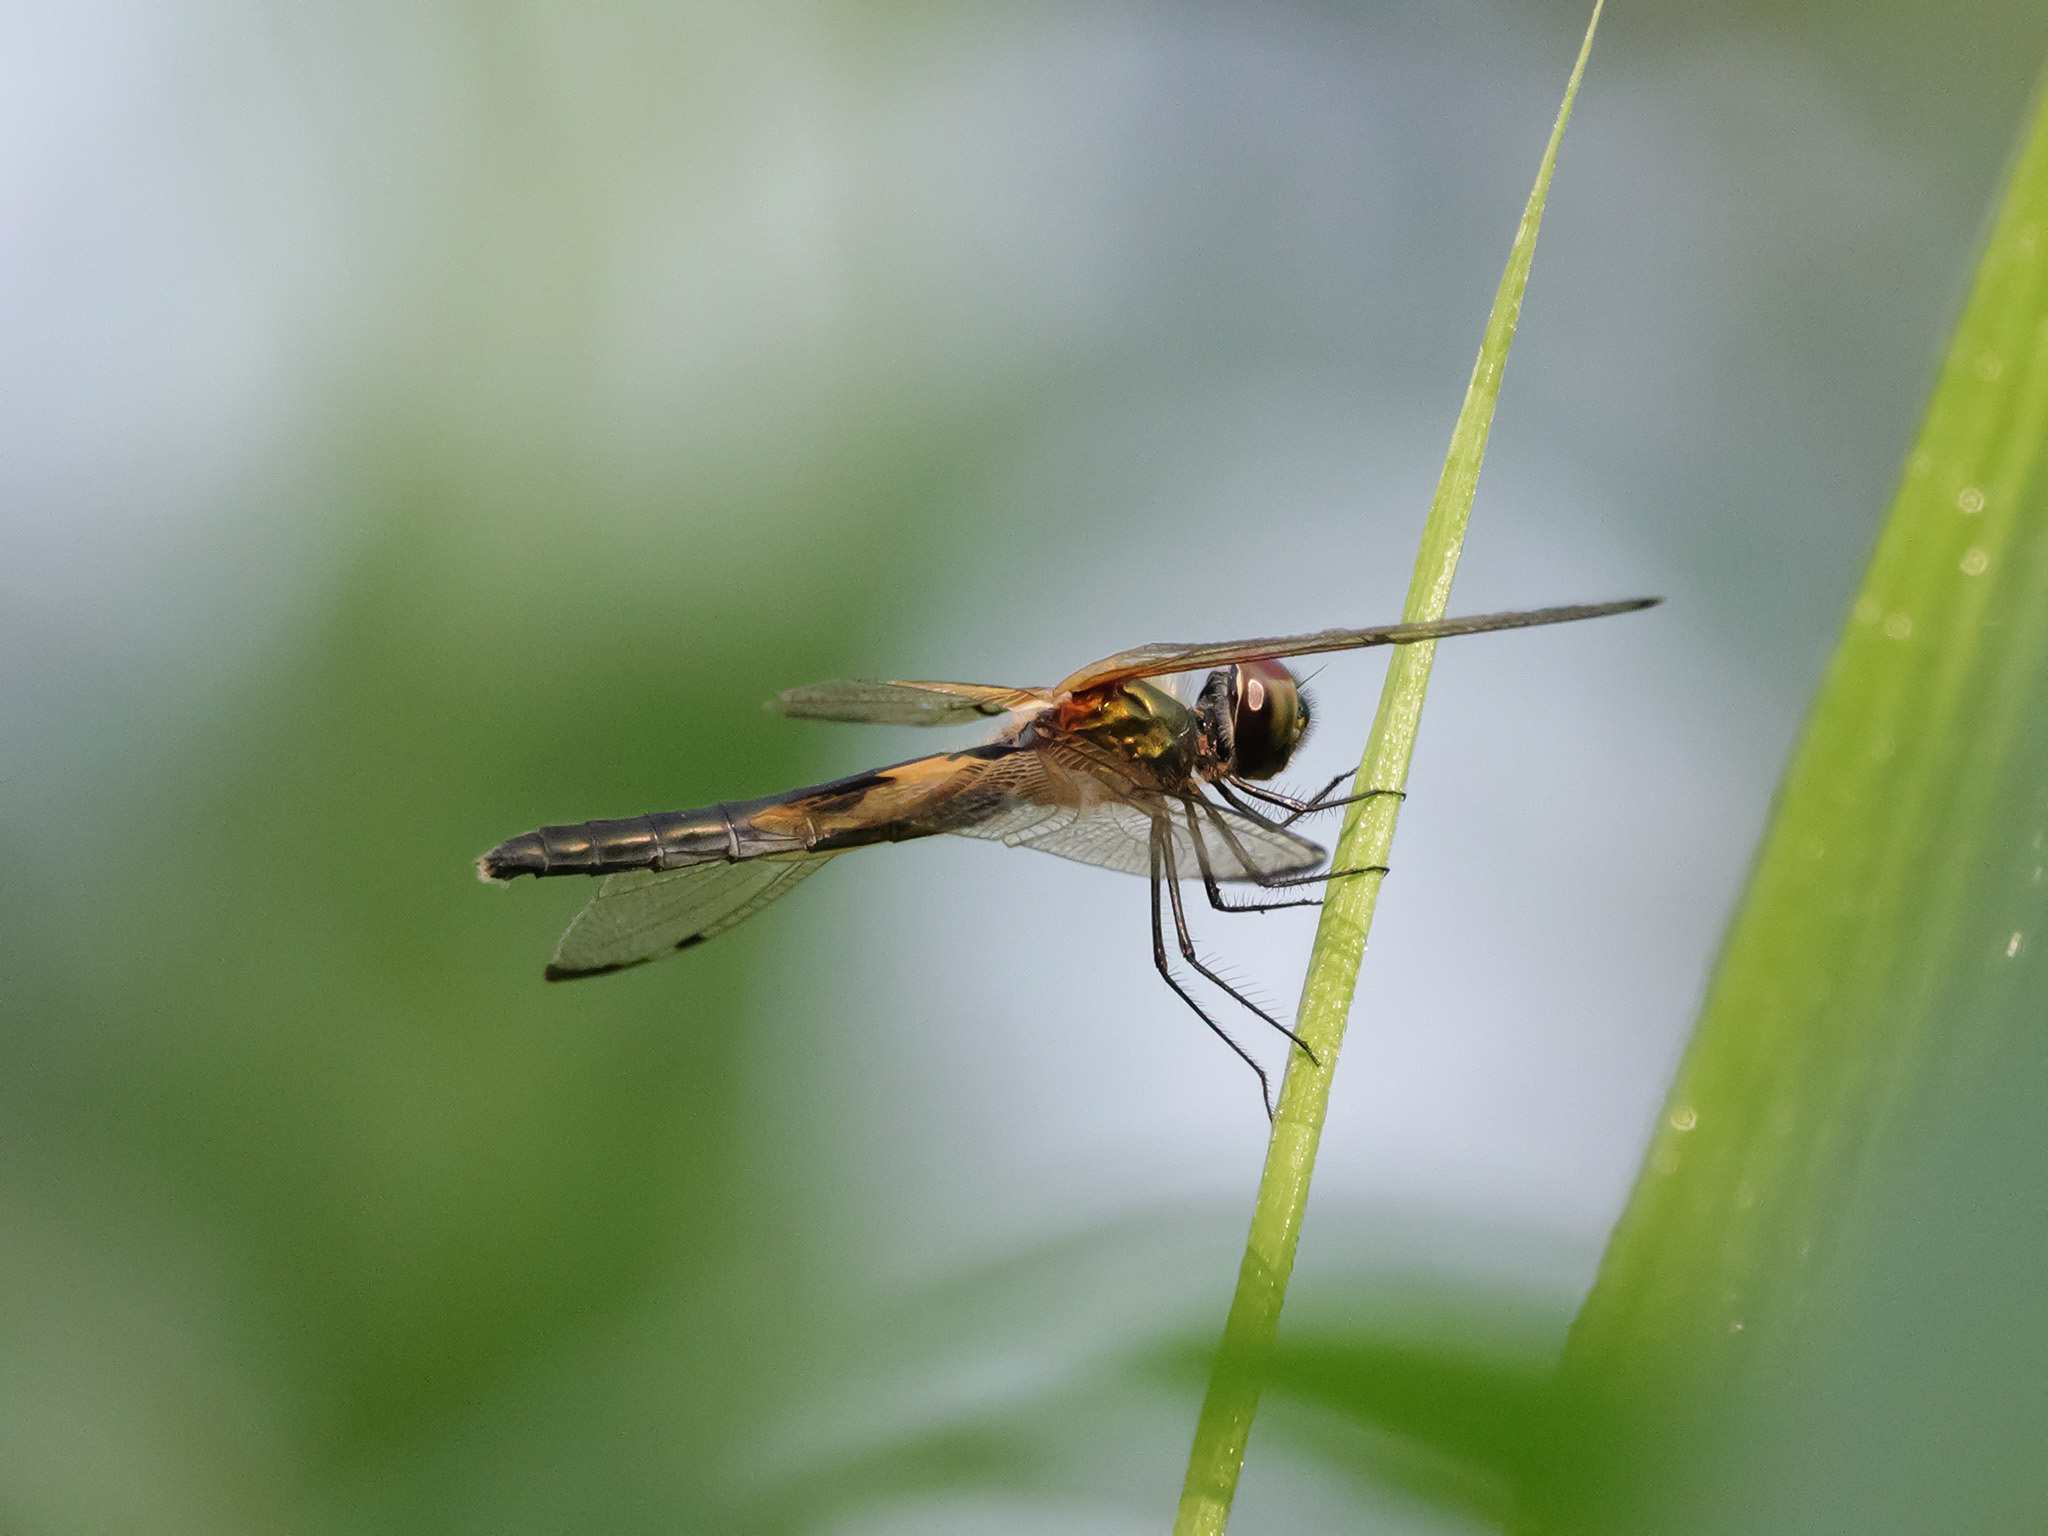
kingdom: Animalia
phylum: Arthropoda
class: Insecta
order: Odonata
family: Libellulidae
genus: Rhyothemis
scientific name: Rhyothemis phyllis
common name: Yellow-barred flutterer
